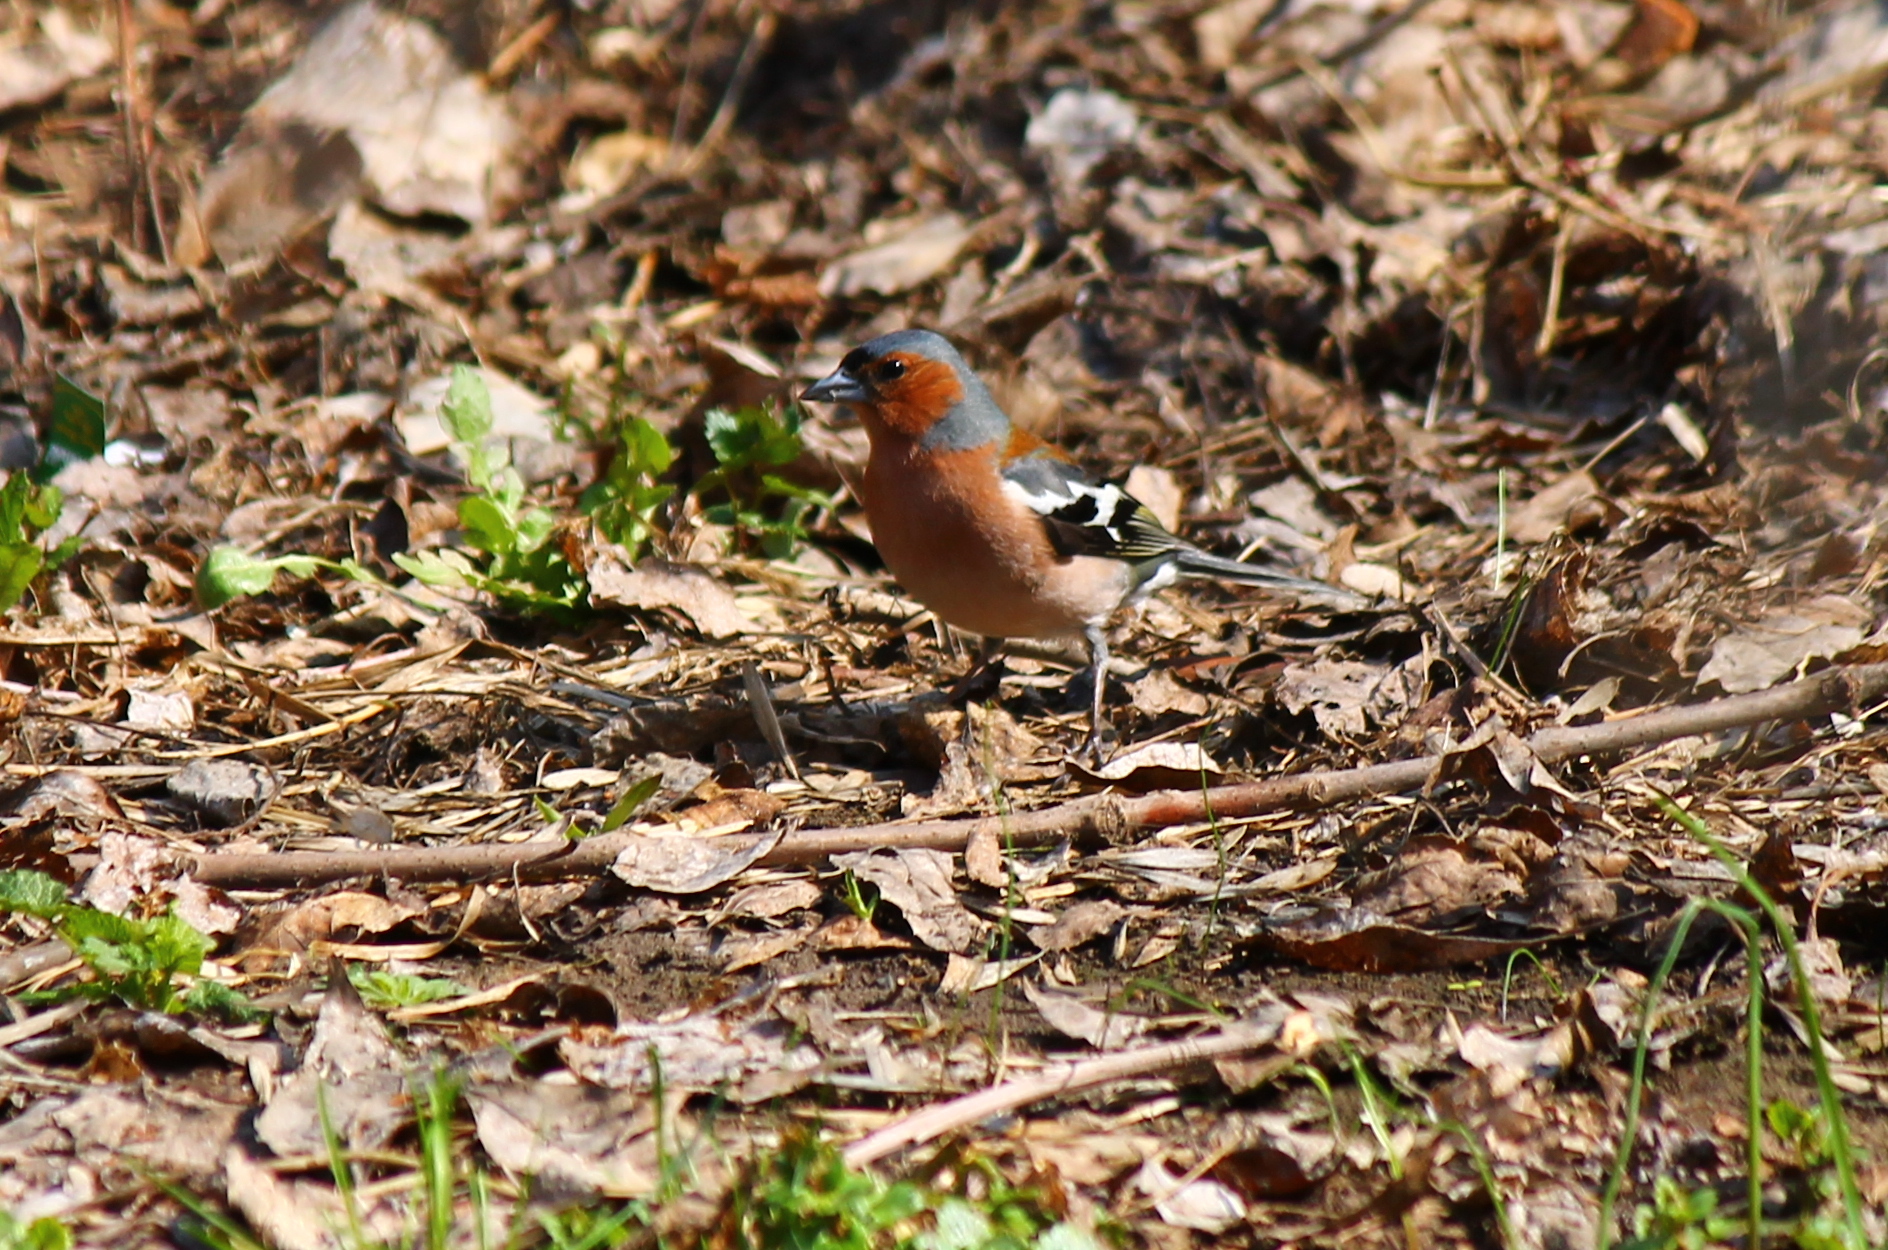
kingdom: Animalia
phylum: Chordata
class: Aves
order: Passeriformes
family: Fringillidae
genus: Fringilla
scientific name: Fringilla coelebs
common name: Common chaffinch
